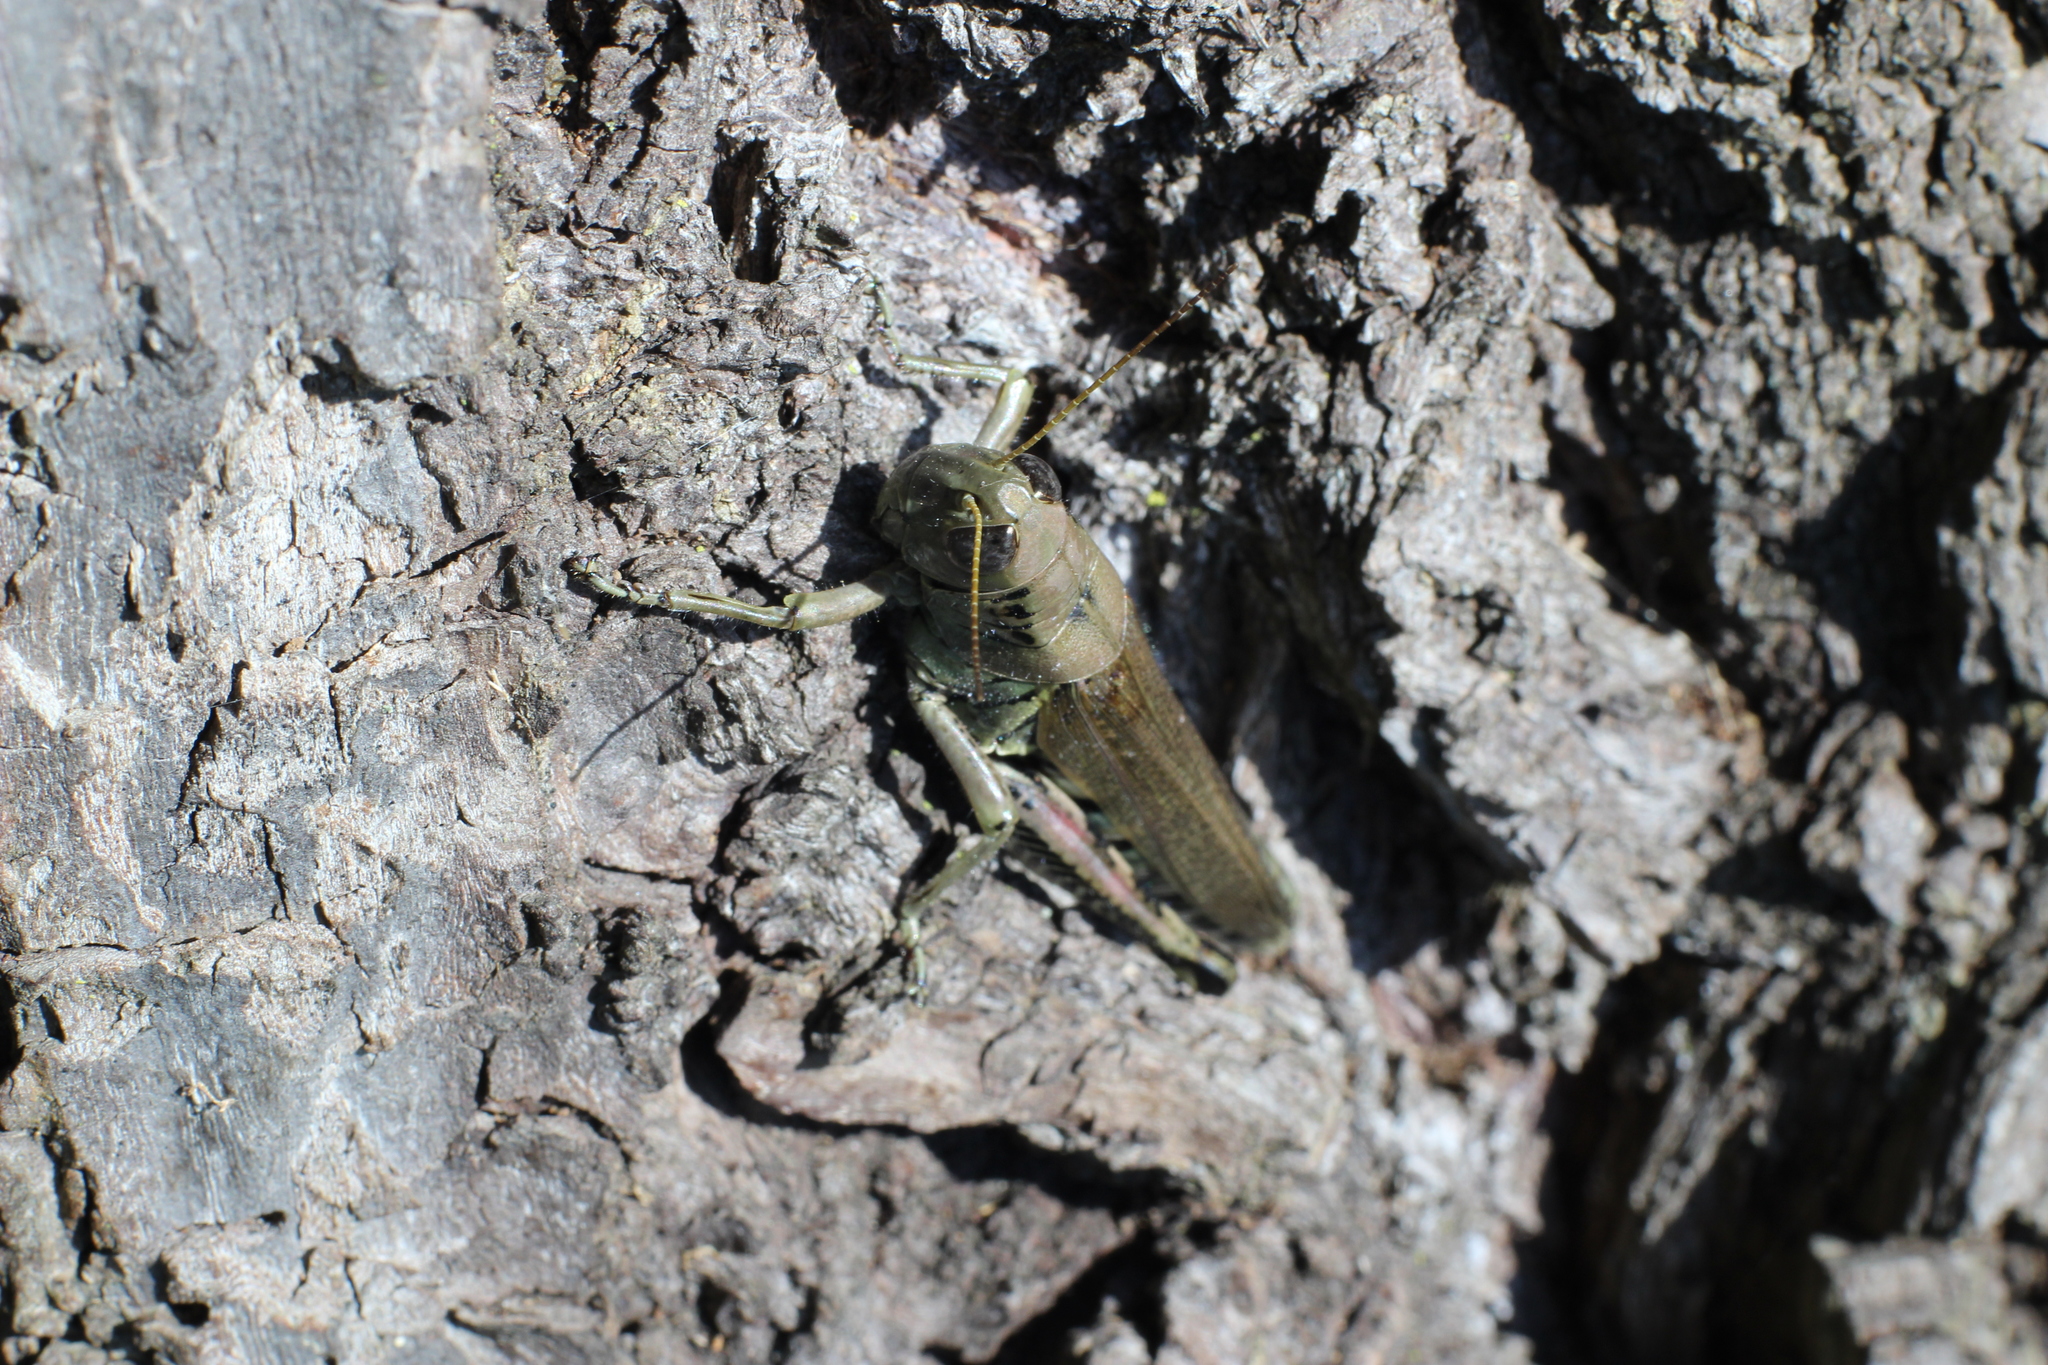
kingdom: Animalia
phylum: Arthropoda
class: Insecta
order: Orthoptera
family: Acrididae
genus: Melanoplus
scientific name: Melanoplus differentialis
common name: Differential grasshopper
